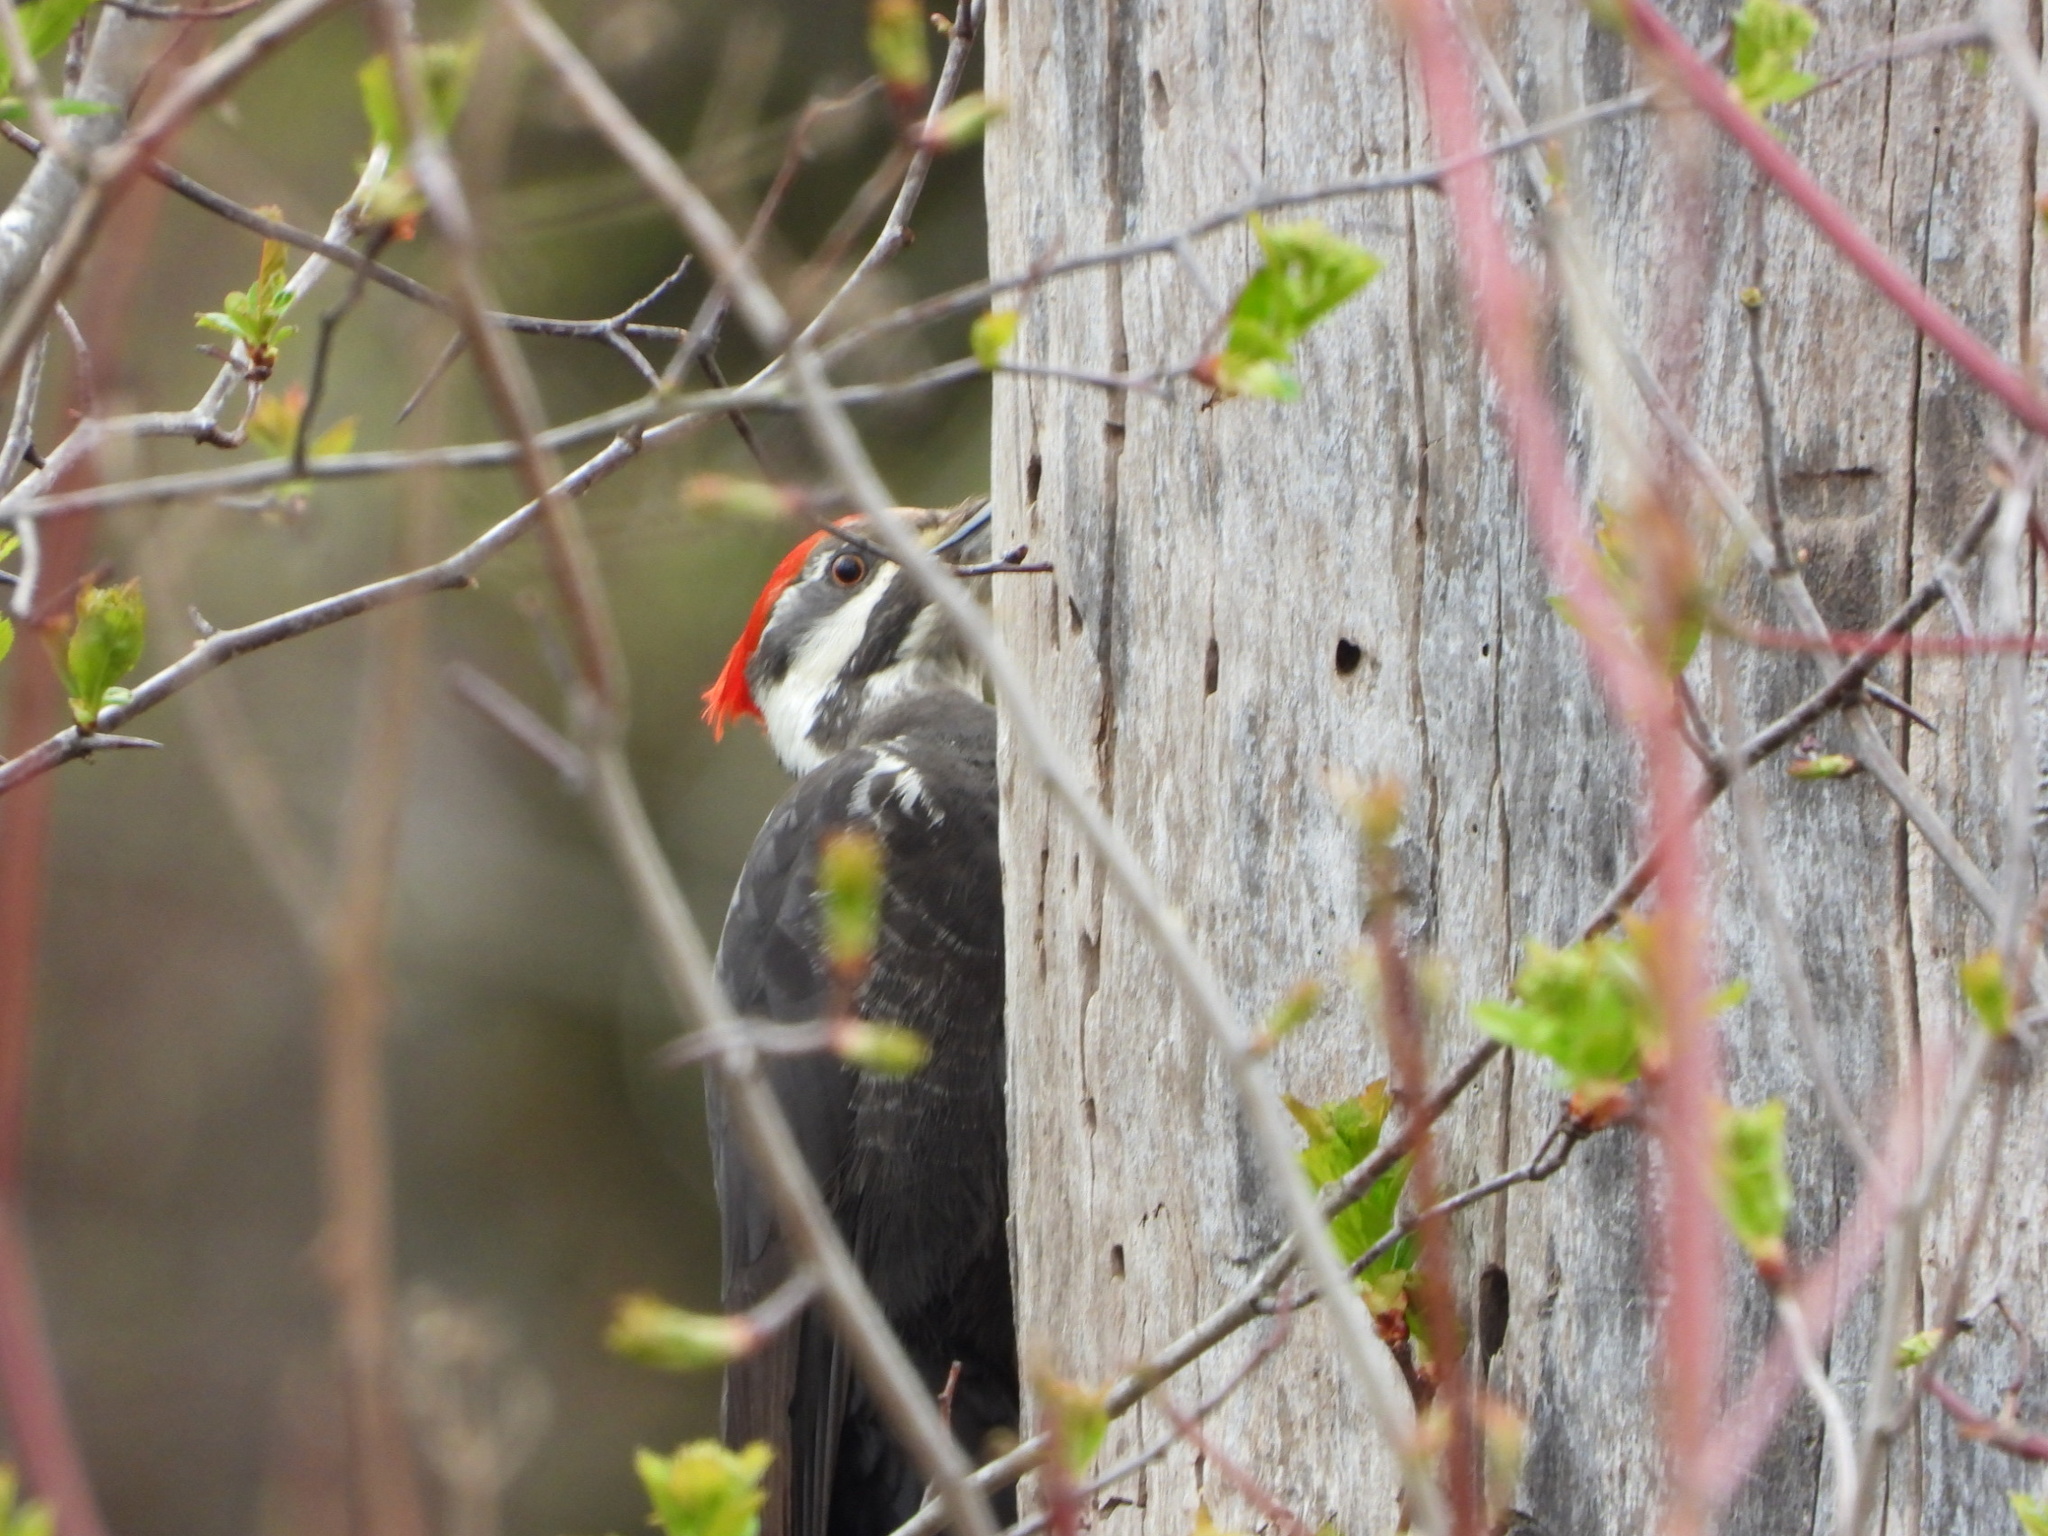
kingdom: Animalia
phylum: Chordata
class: Aves
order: Piciformes
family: Picidae
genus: Dryocopus
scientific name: Dryocopus pileatus
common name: Pileated woodpecker
